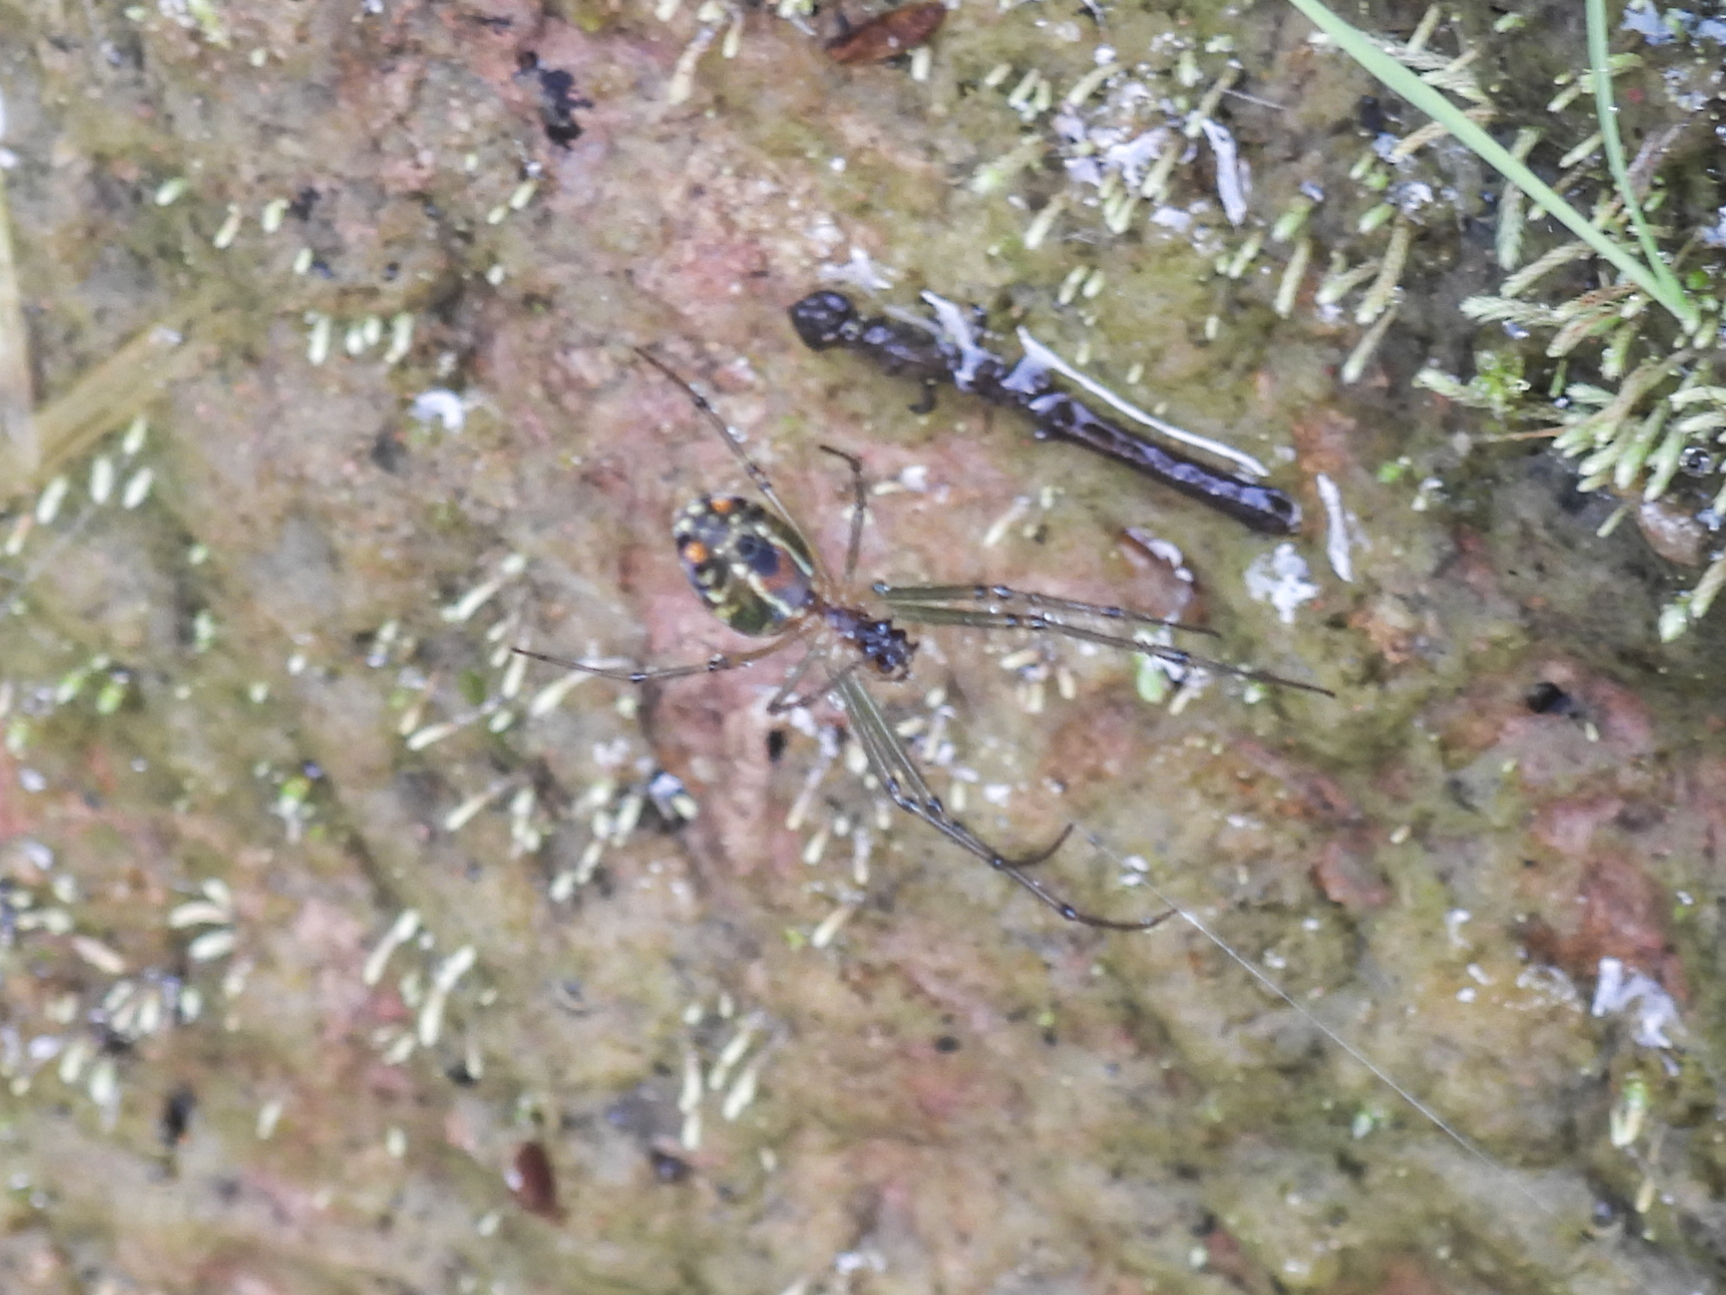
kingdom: Animalia
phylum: Arthropoda
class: Arachnida
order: Araneae
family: Tetragnathidae
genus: Leucauge
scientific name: Leucauge mariana
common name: Longjawed orb weavers
